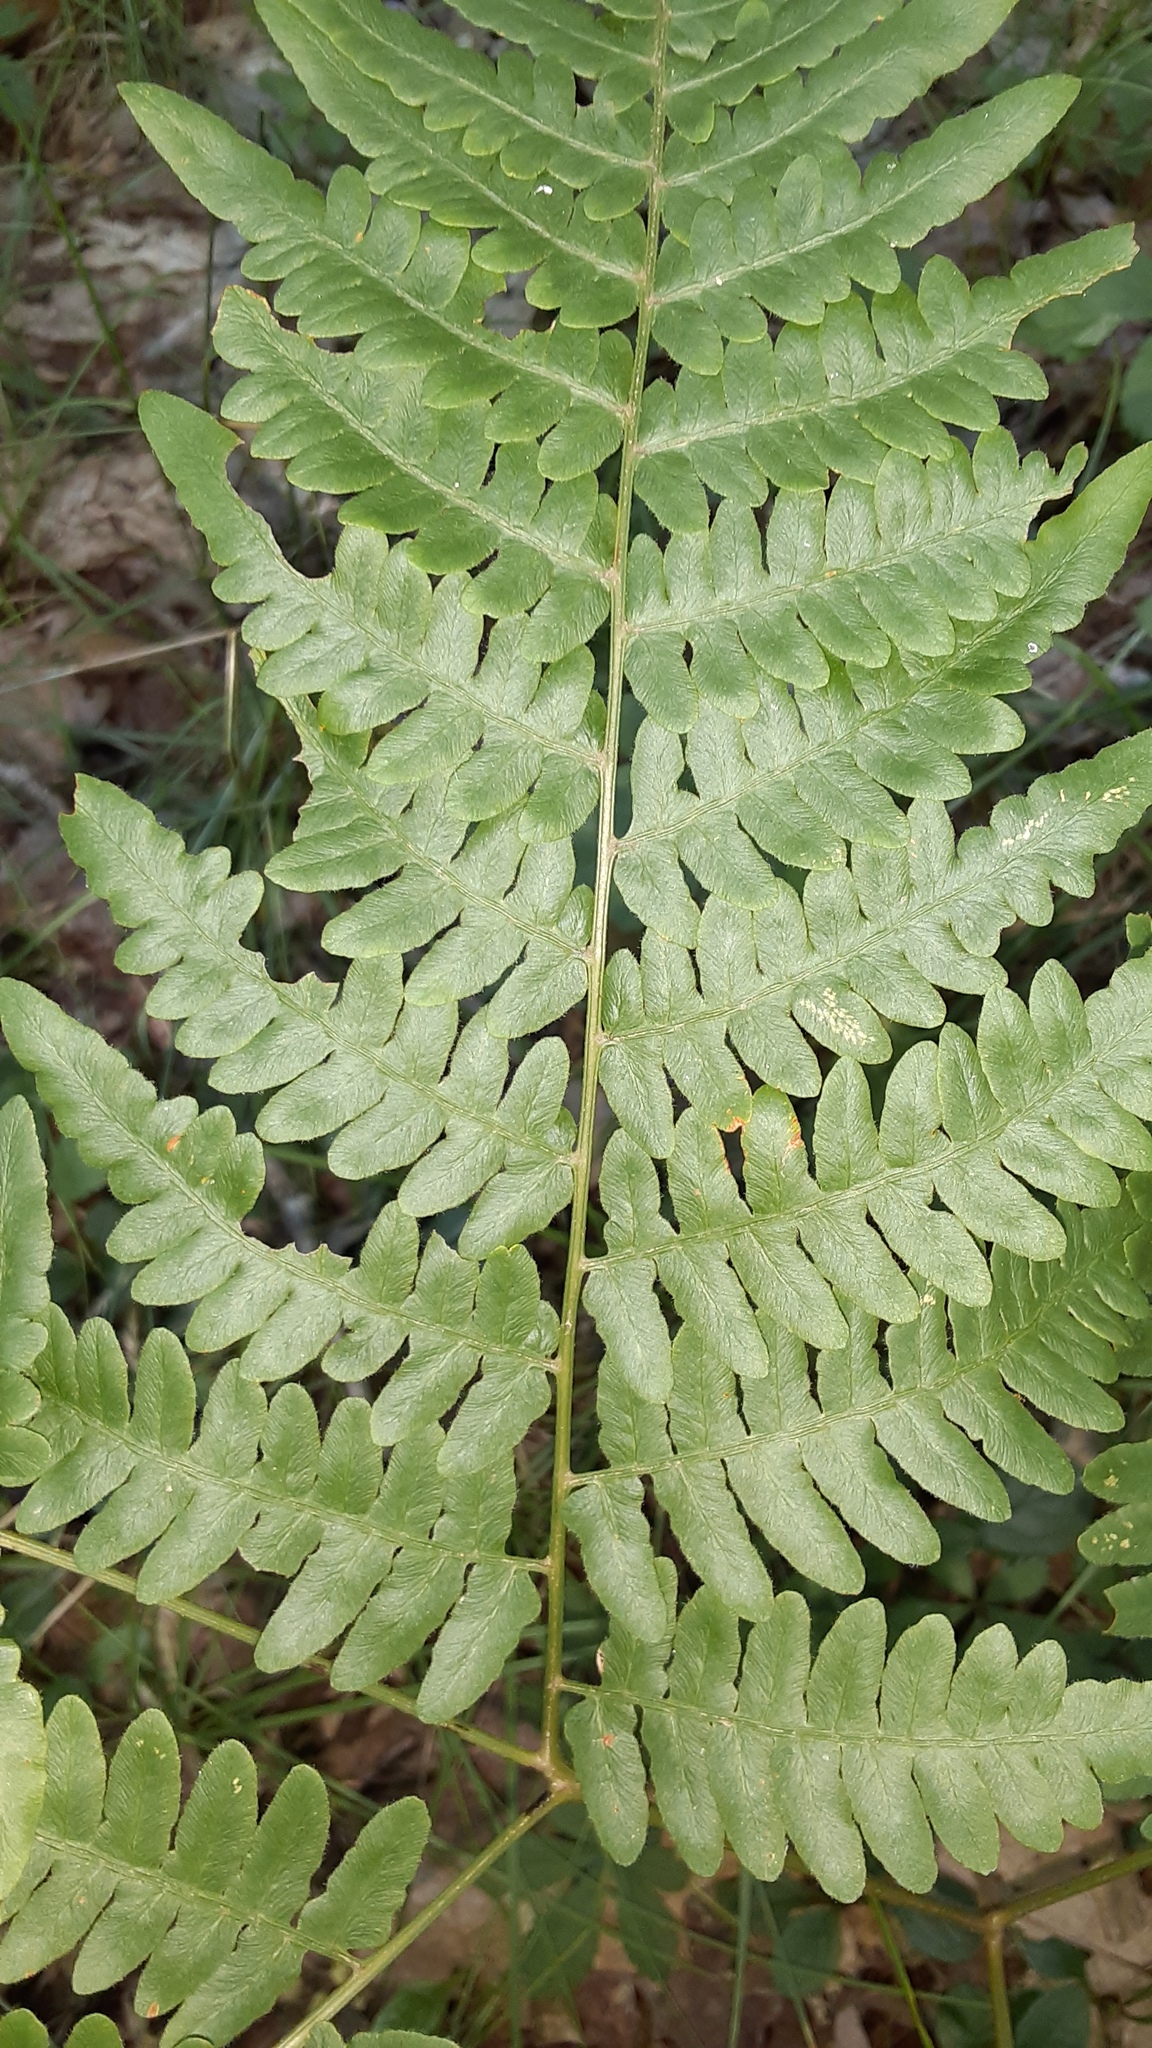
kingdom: Plantae
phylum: Tracheophyta
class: Polypodiopsida
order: Polypodiales
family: Dennstaedtiaceae
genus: Pteridium
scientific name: Pteridium aquilinum
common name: Bracken
